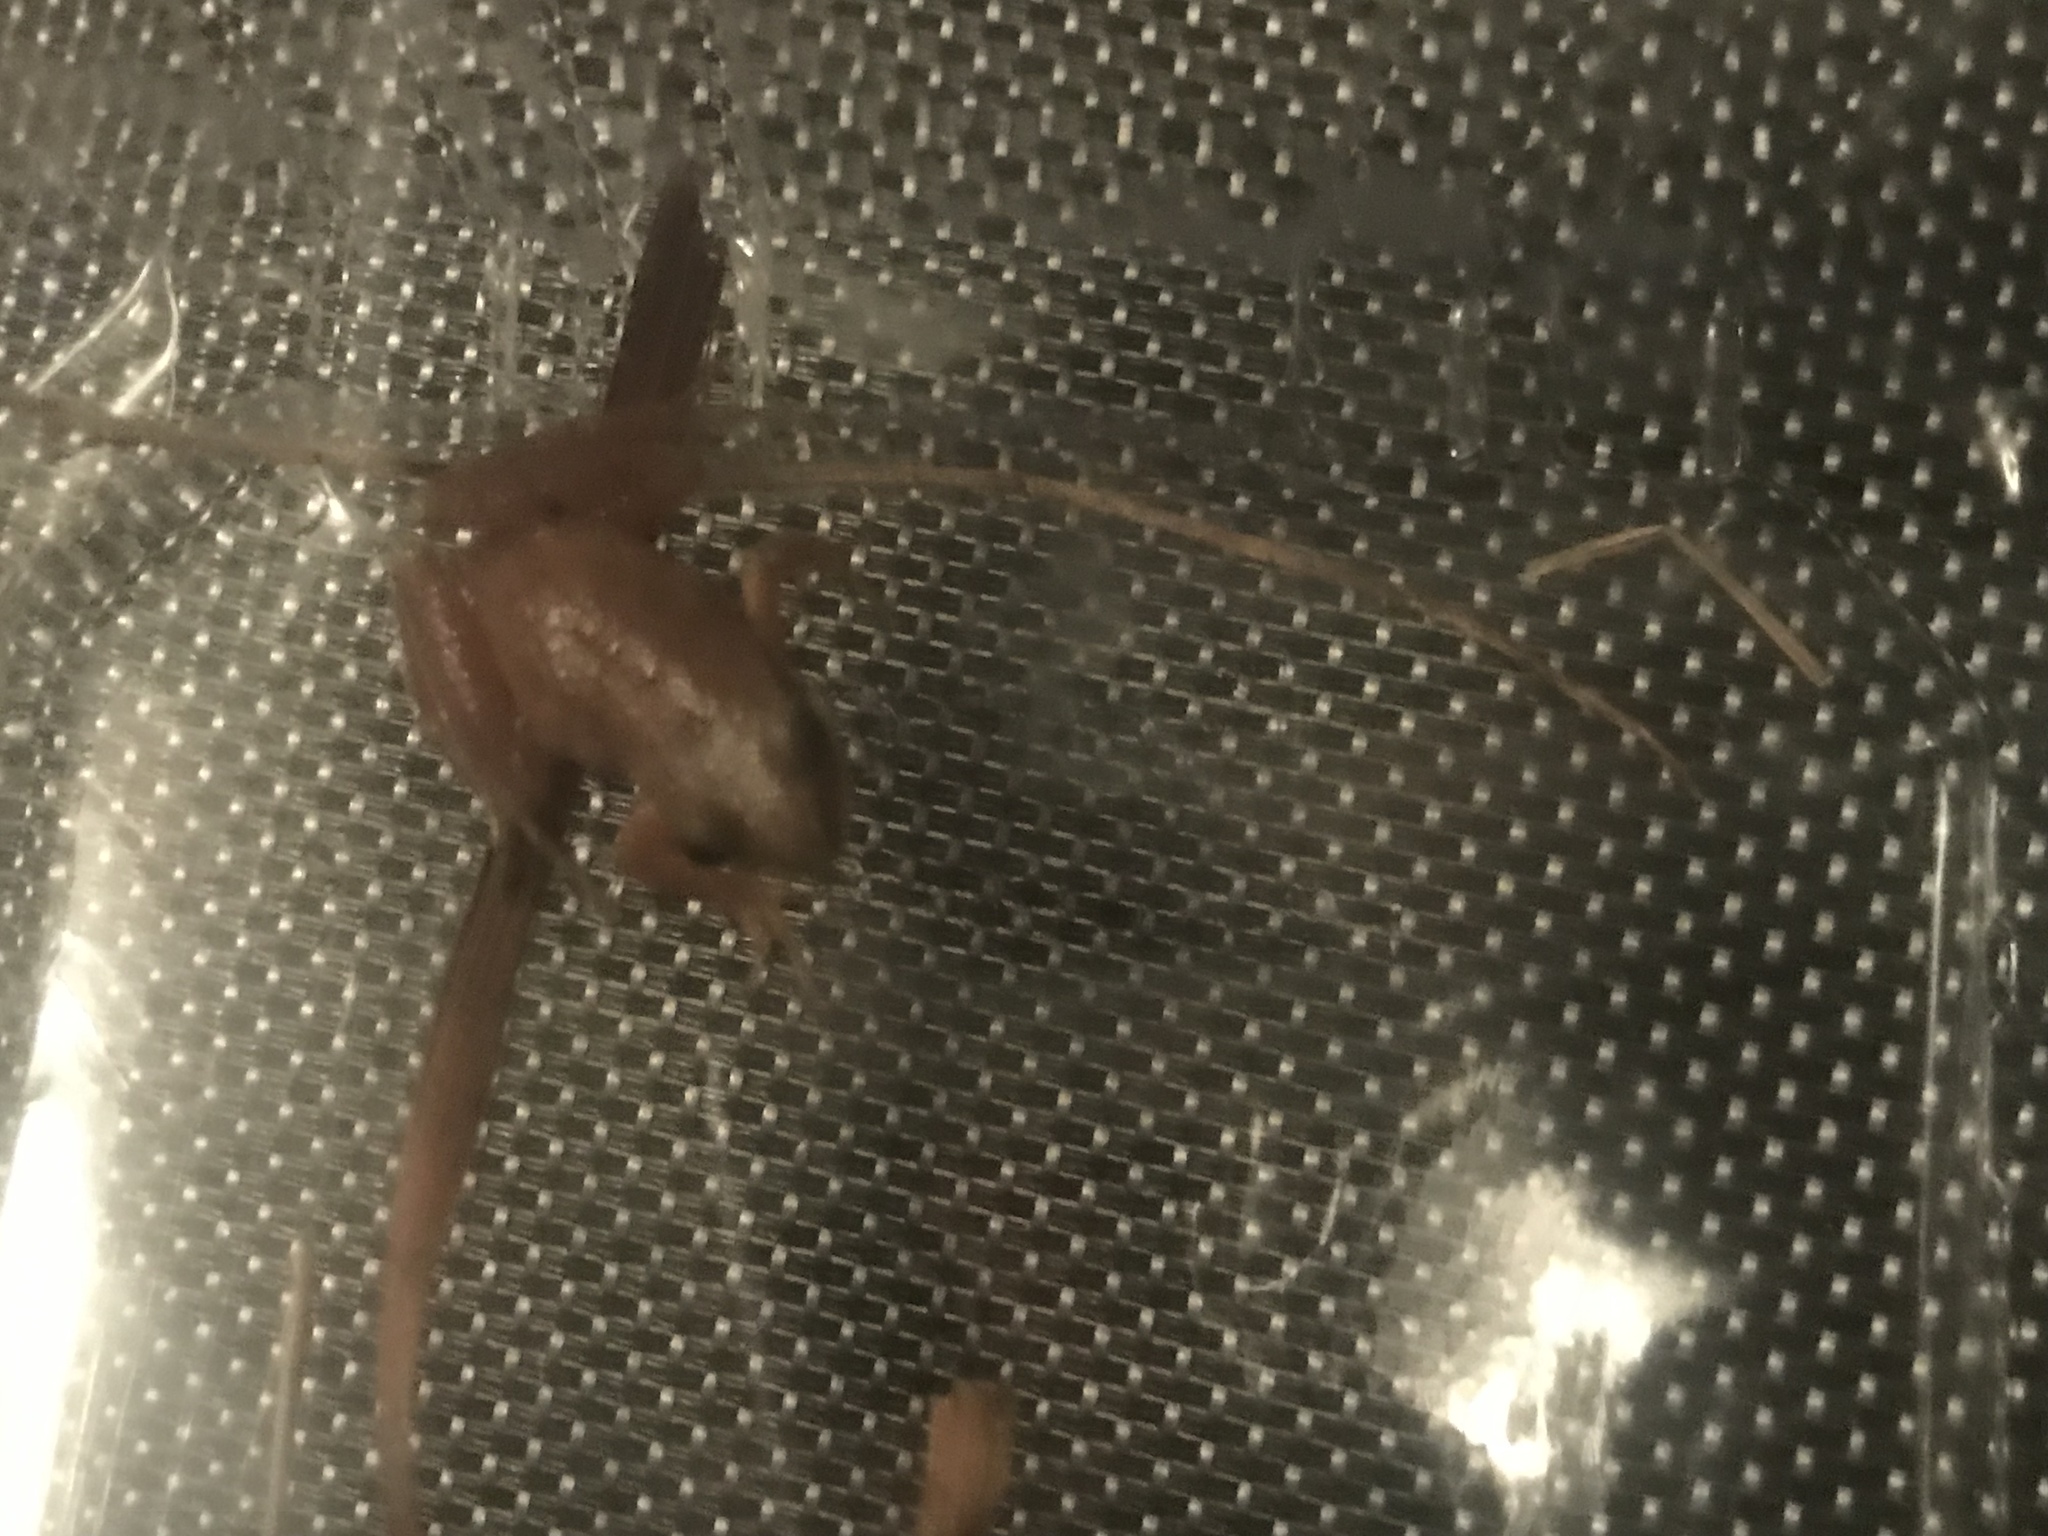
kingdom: Animalia
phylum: Chordata
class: Amphibia
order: Anura
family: Hylidae
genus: Pseudacris
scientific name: Pseudacris feriarum
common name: Upland chorus frog
